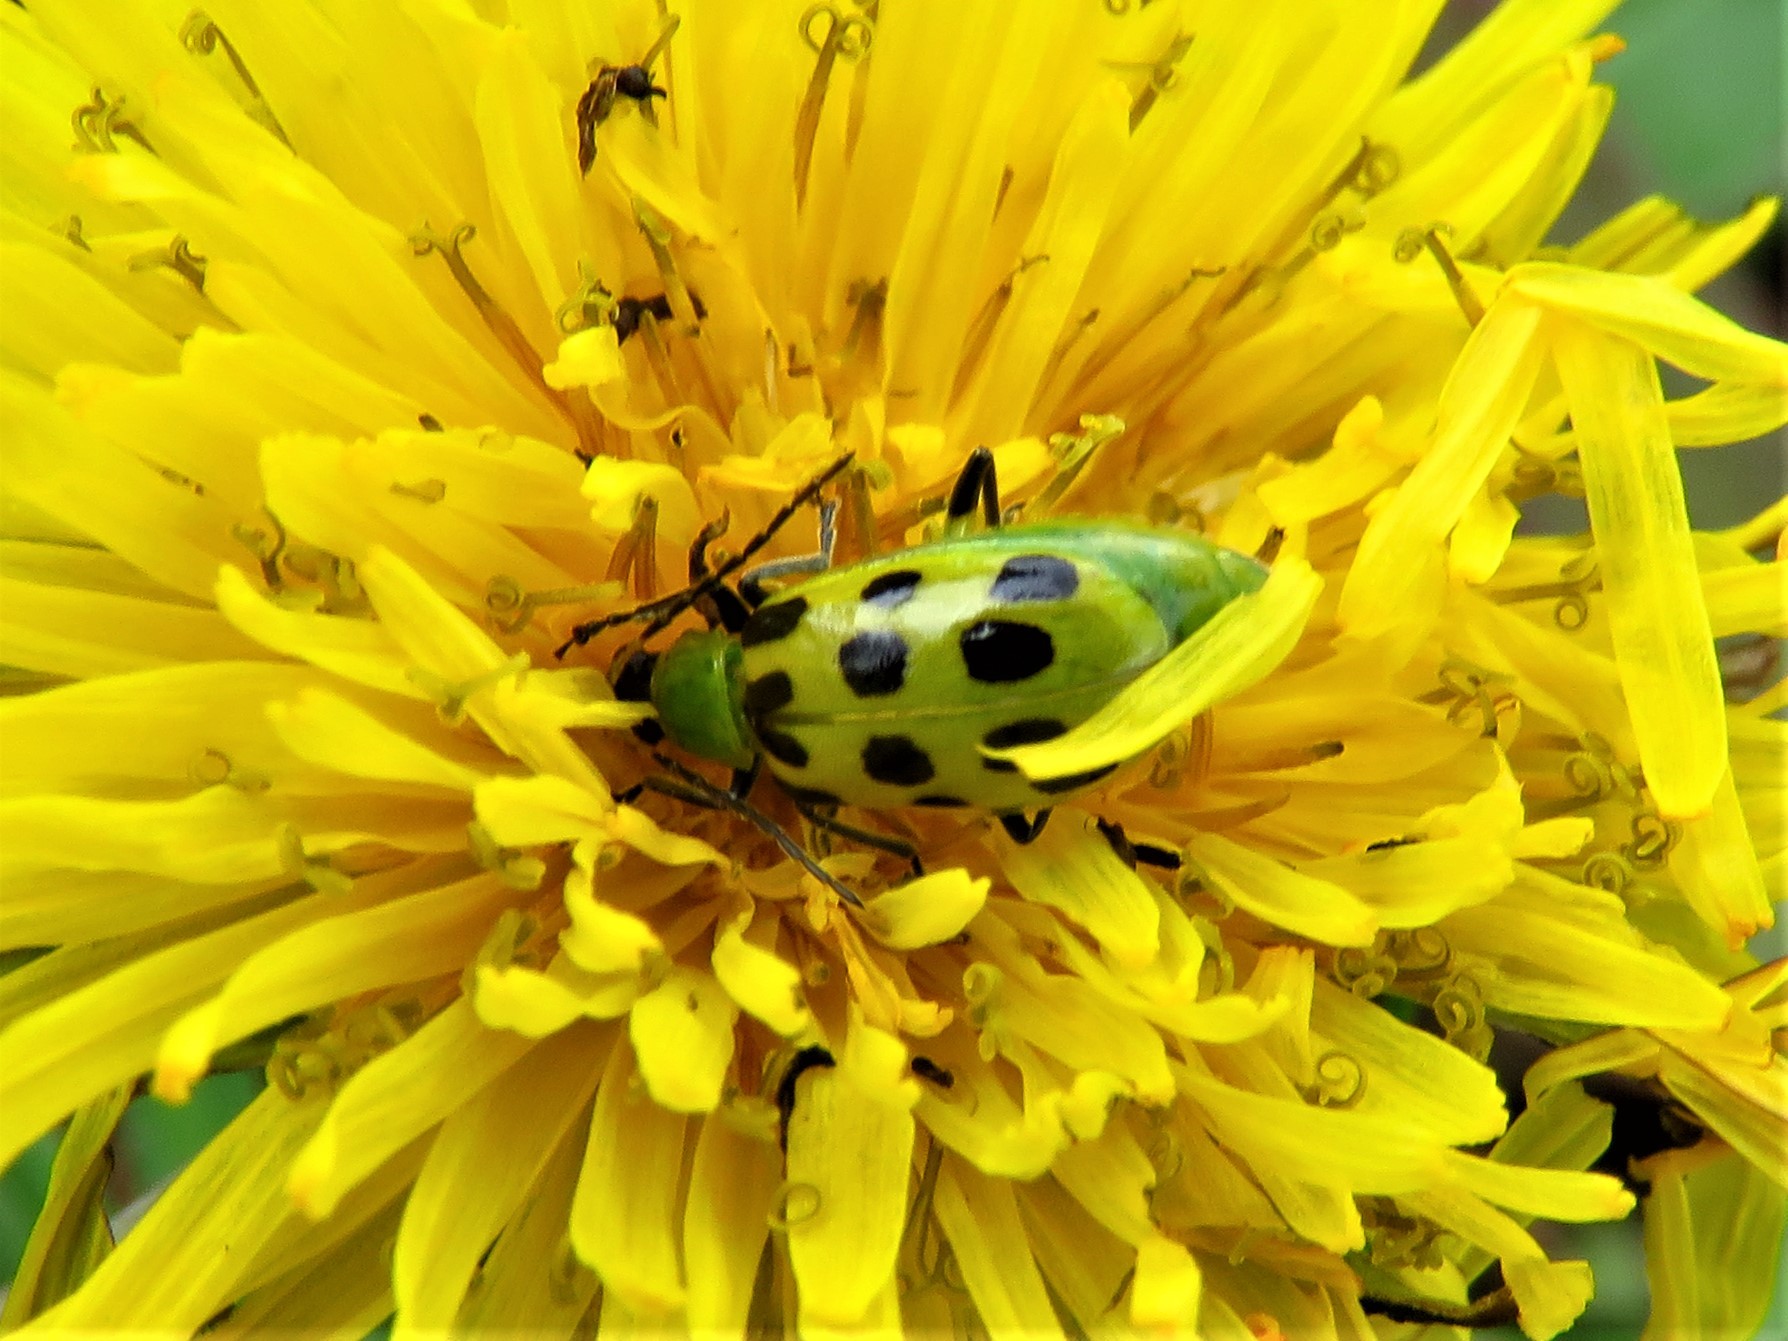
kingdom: Animalia
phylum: Arthropoda
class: Insecta
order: Coleoptera
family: Chrysomelidae
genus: Diabrotica
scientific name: Diabrotica undecimpunctata
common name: Spotted cucumber beetle
